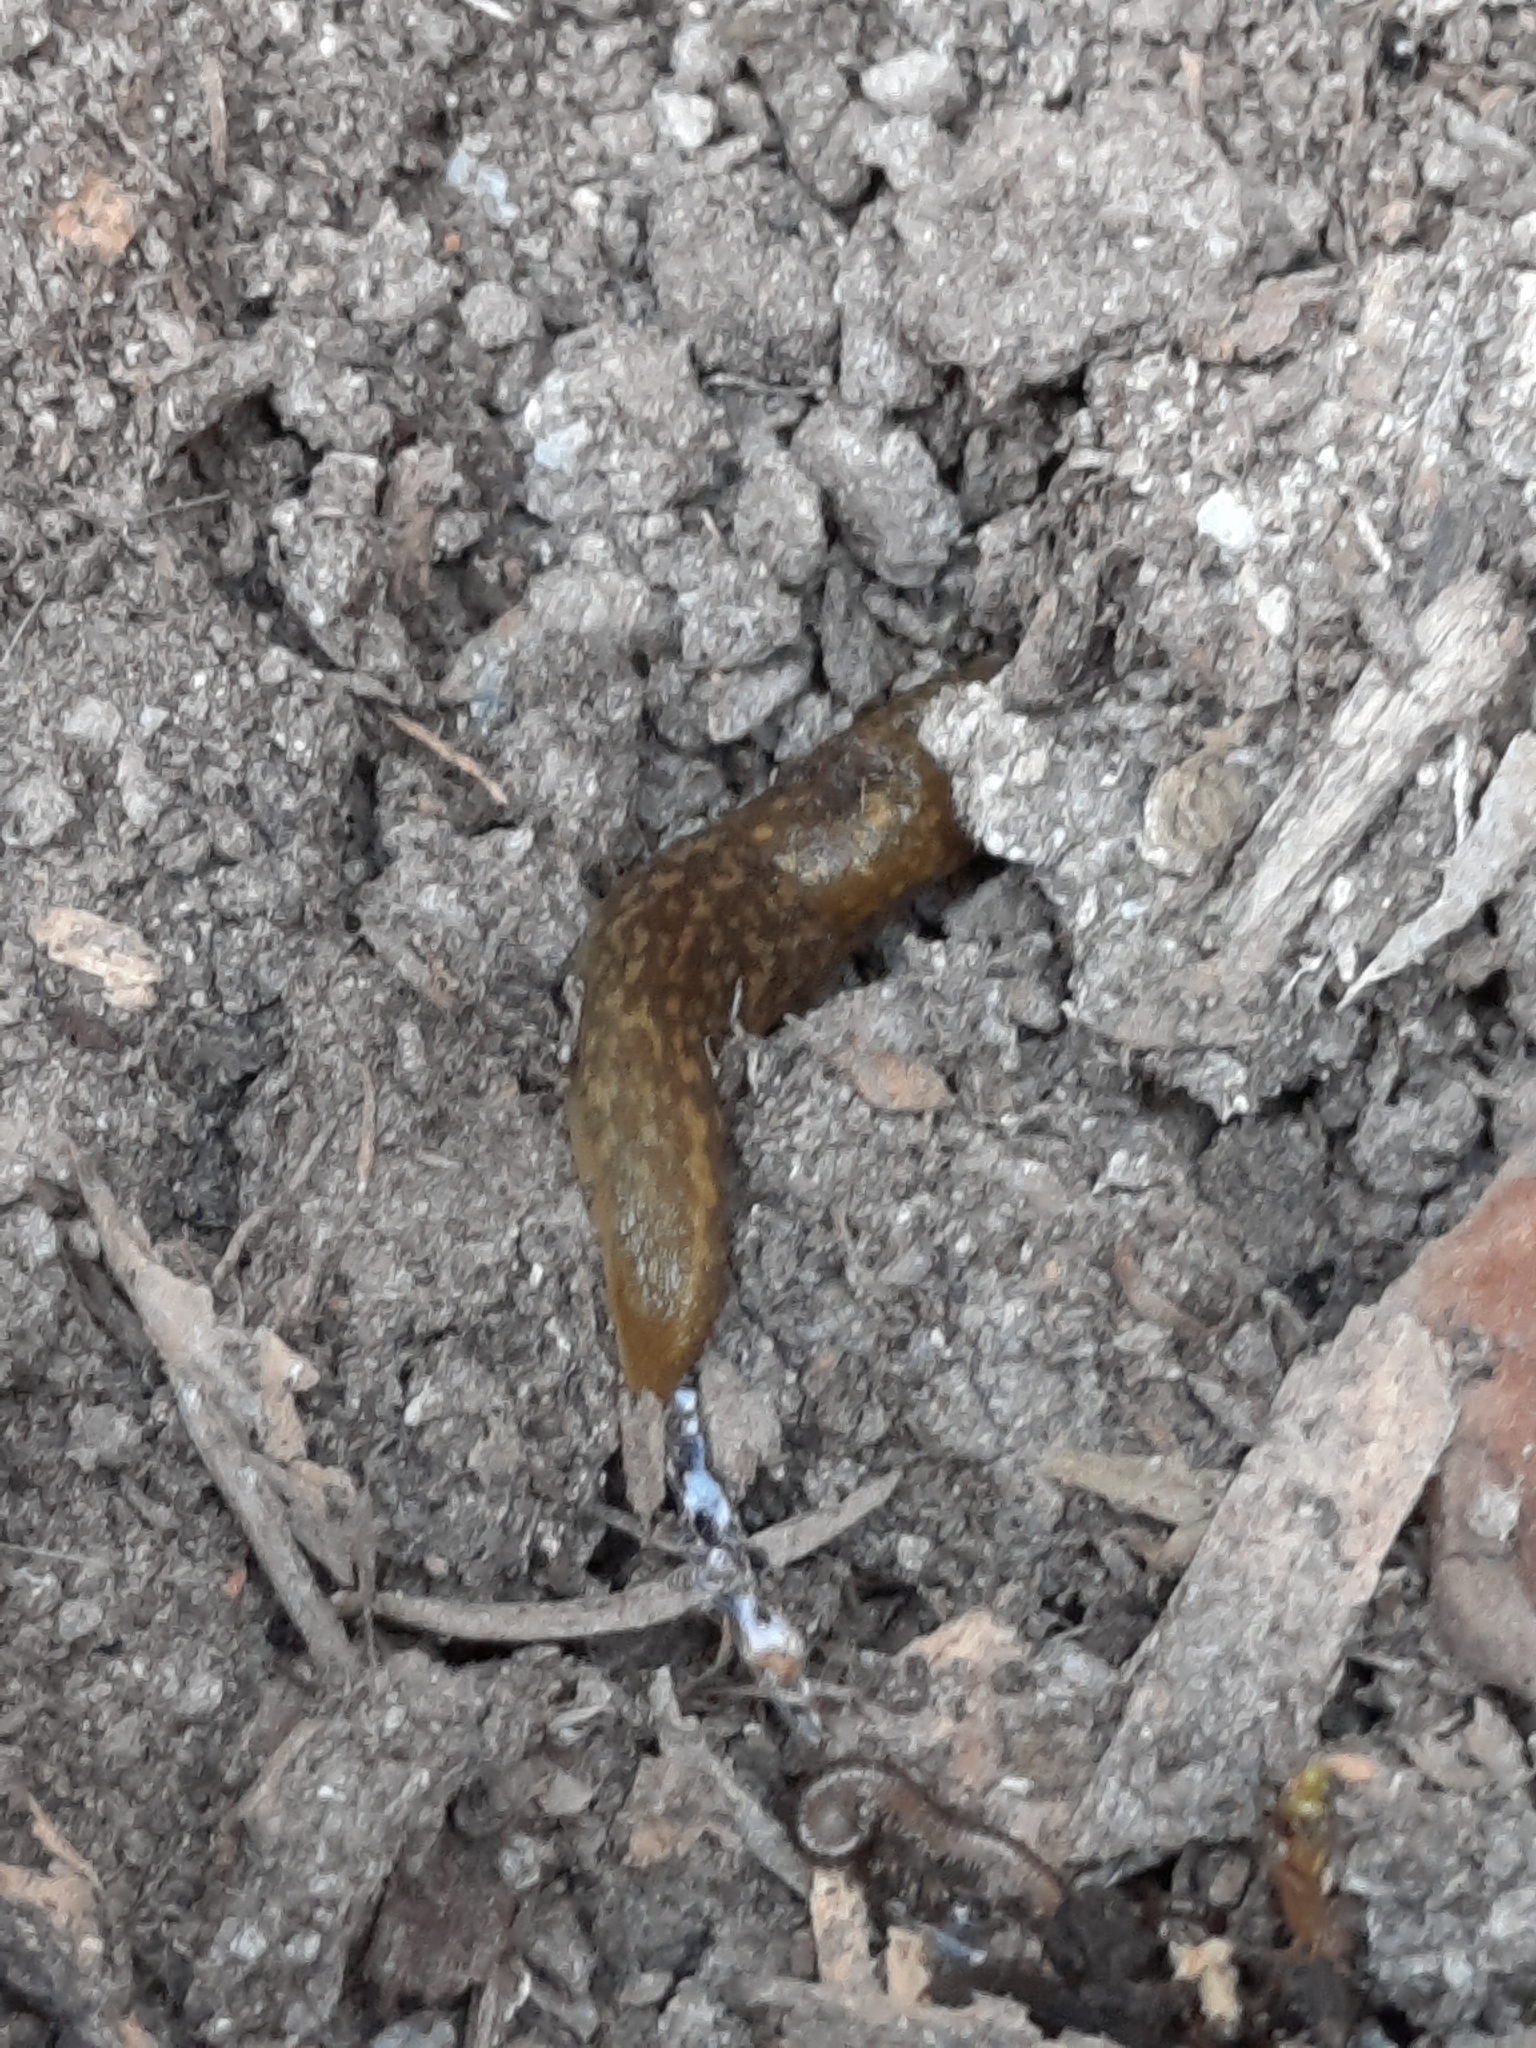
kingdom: Animalia
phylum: Mollusca
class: Gastropoda
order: Stylommatophora
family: Limacidae
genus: Limacus
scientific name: Limacus flavus
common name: Yellow gardenslug
